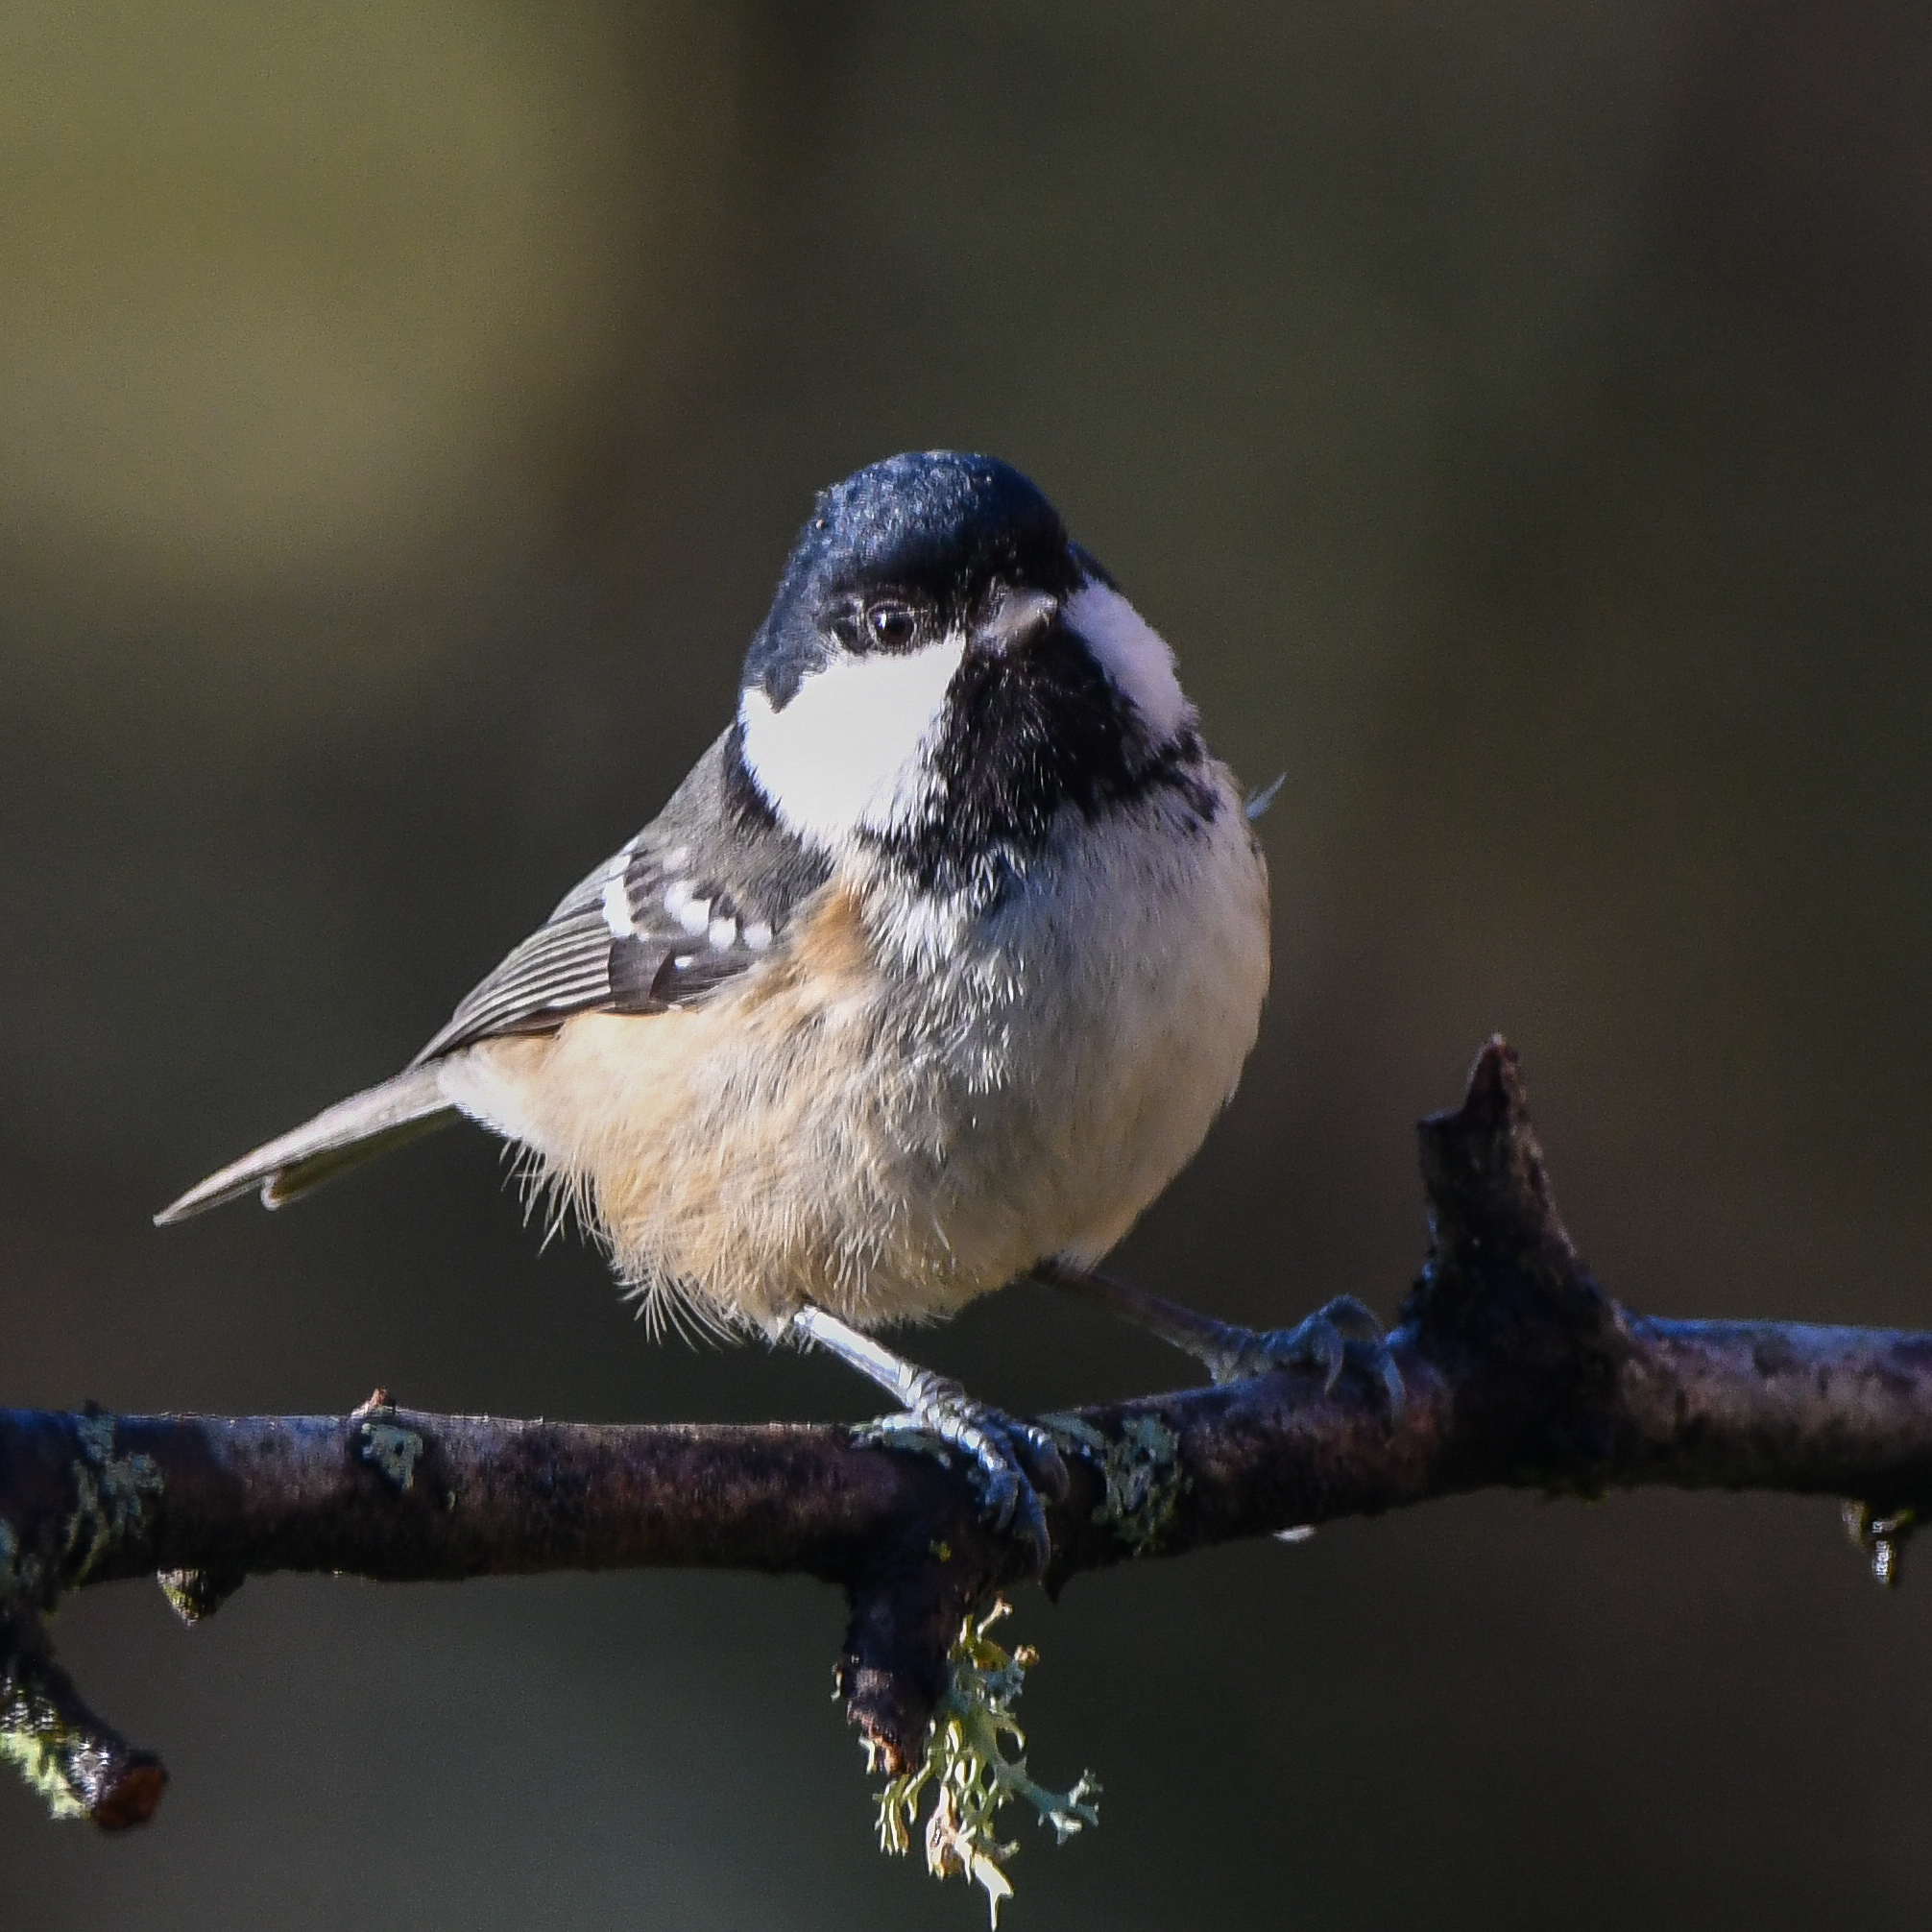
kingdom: Animalia
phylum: Chordata
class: Aves
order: Passeriformes
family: Paridae
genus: Periparus
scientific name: Periparus ater
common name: Coal tit
